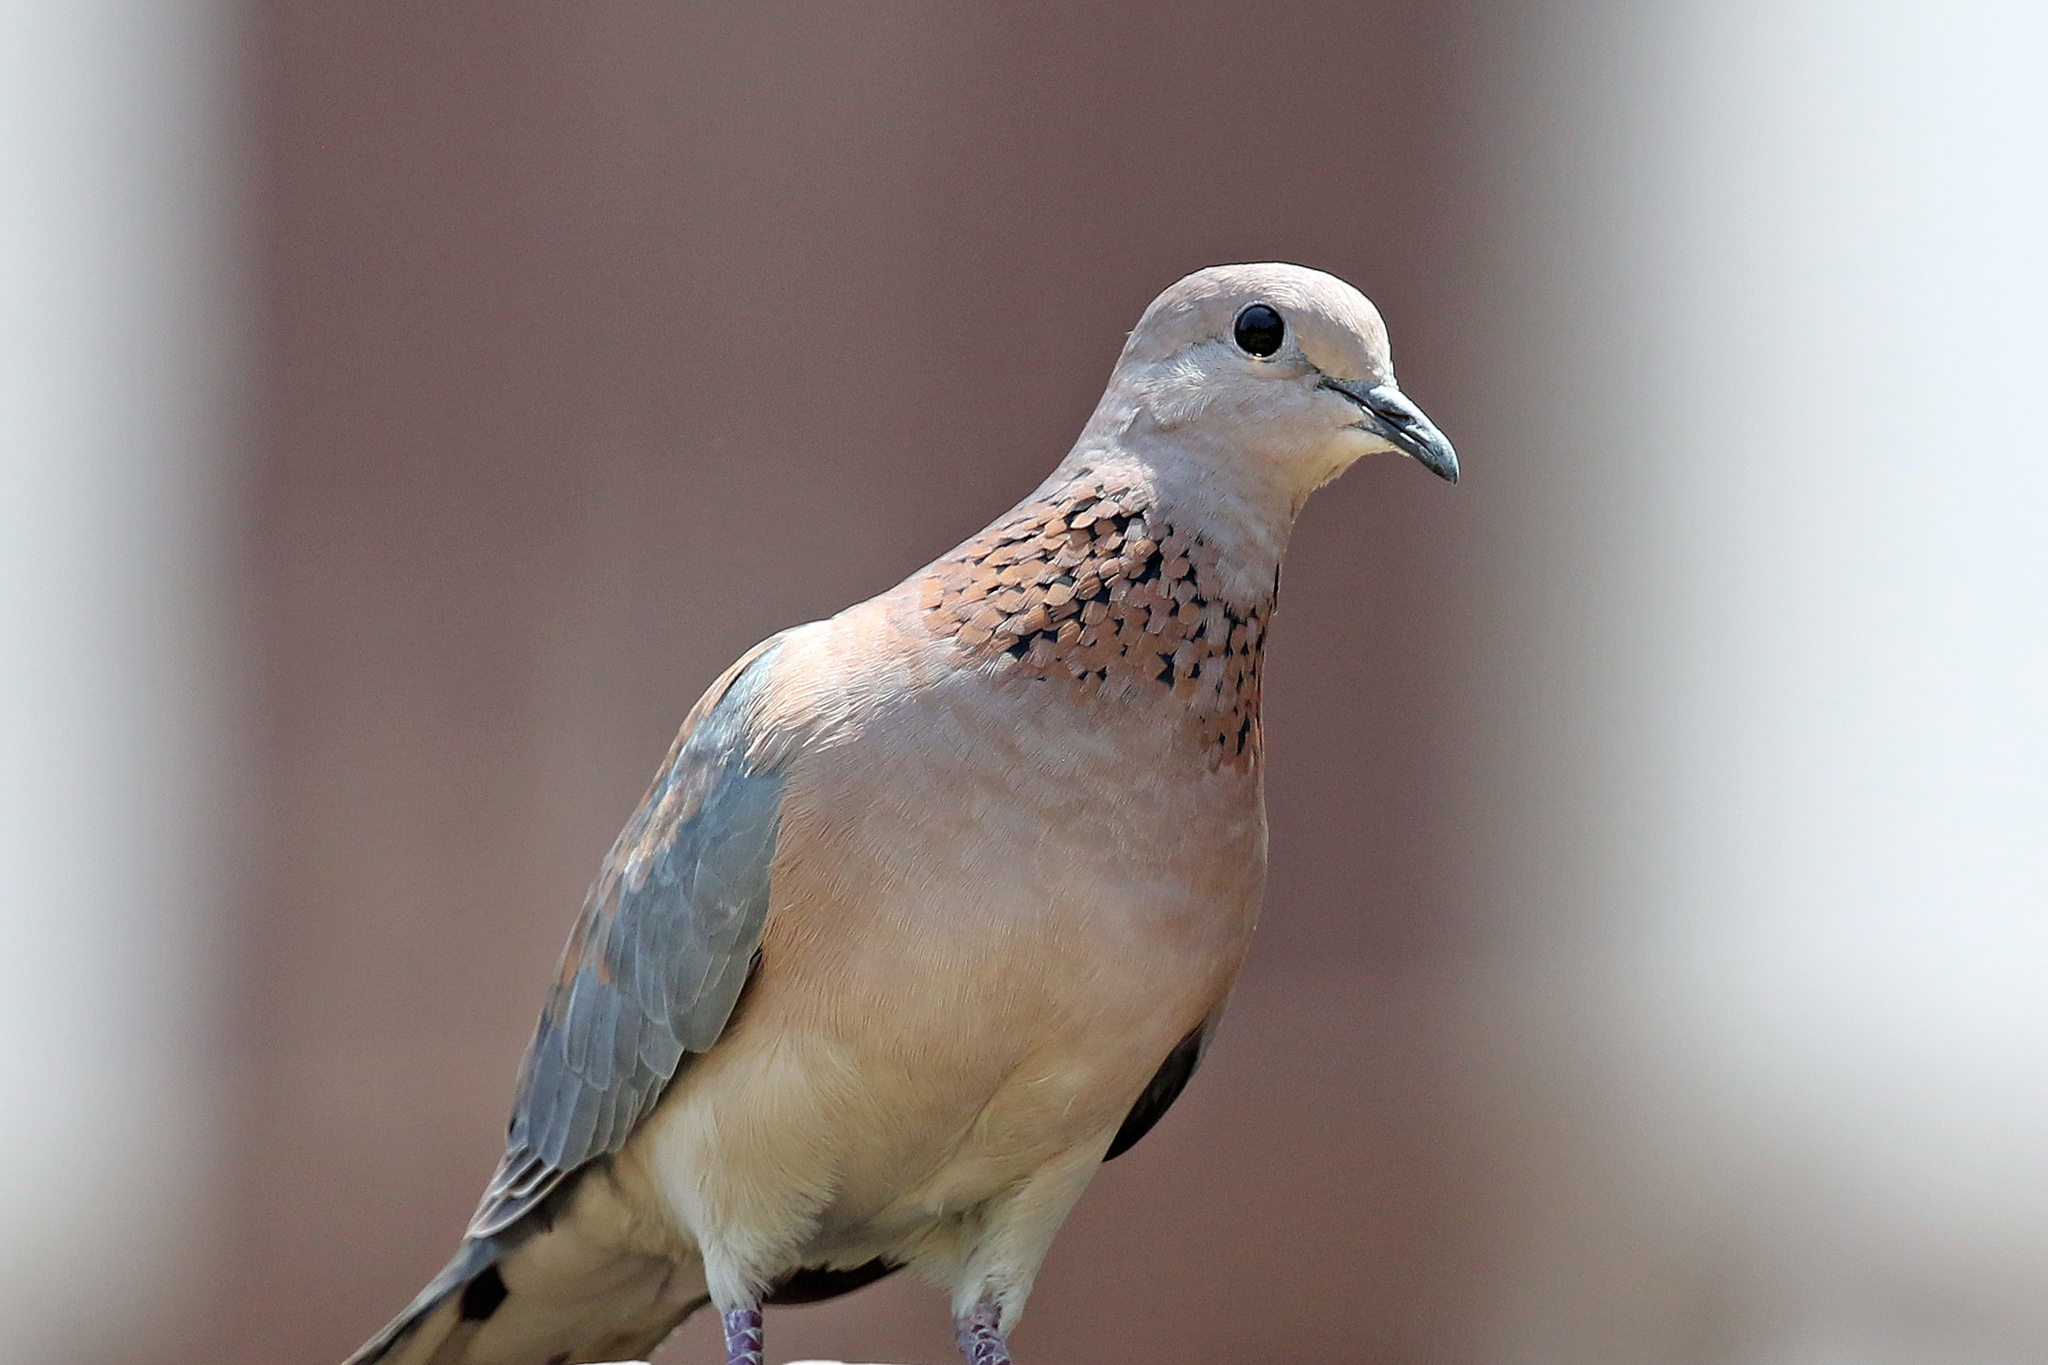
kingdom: Animalia
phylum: Chordata
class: Aves
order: Columbiformes
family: Columbidae
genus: Spilopelia
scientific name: Spilopelia senegalensis
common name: Laughing dove
